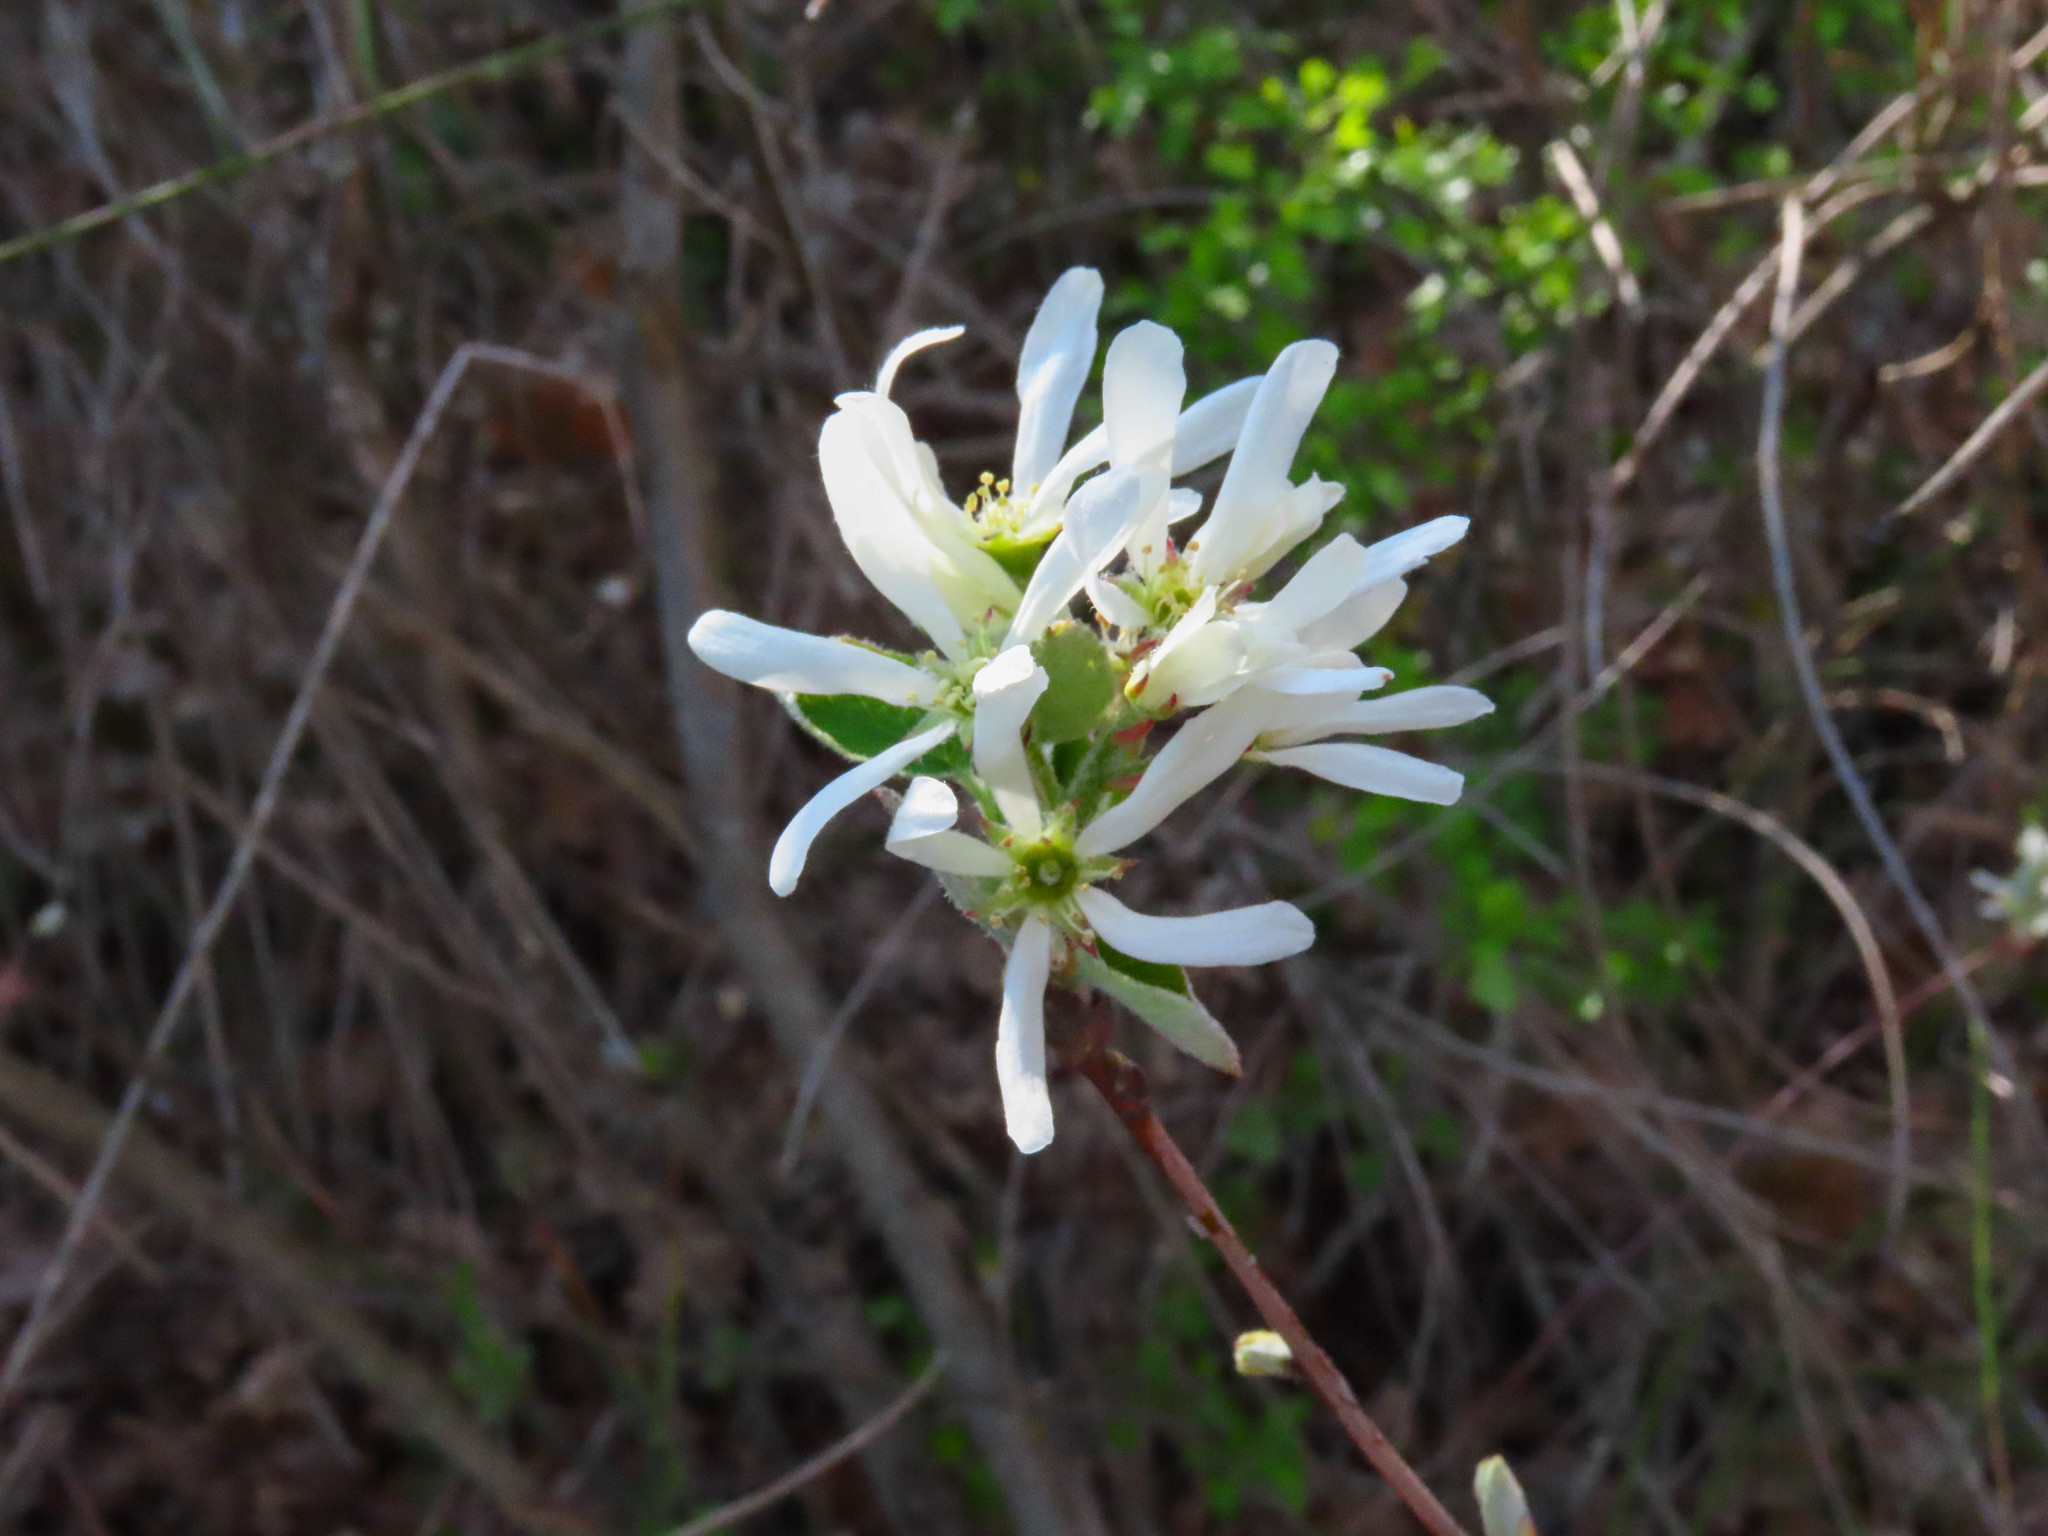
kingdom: Plantae
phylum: Tracheophyta
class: Magnoliopsida
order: Rosales
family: Rosaceae
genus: Amelanchier
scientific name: Amelanchier ovalis
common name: Serviceberry
